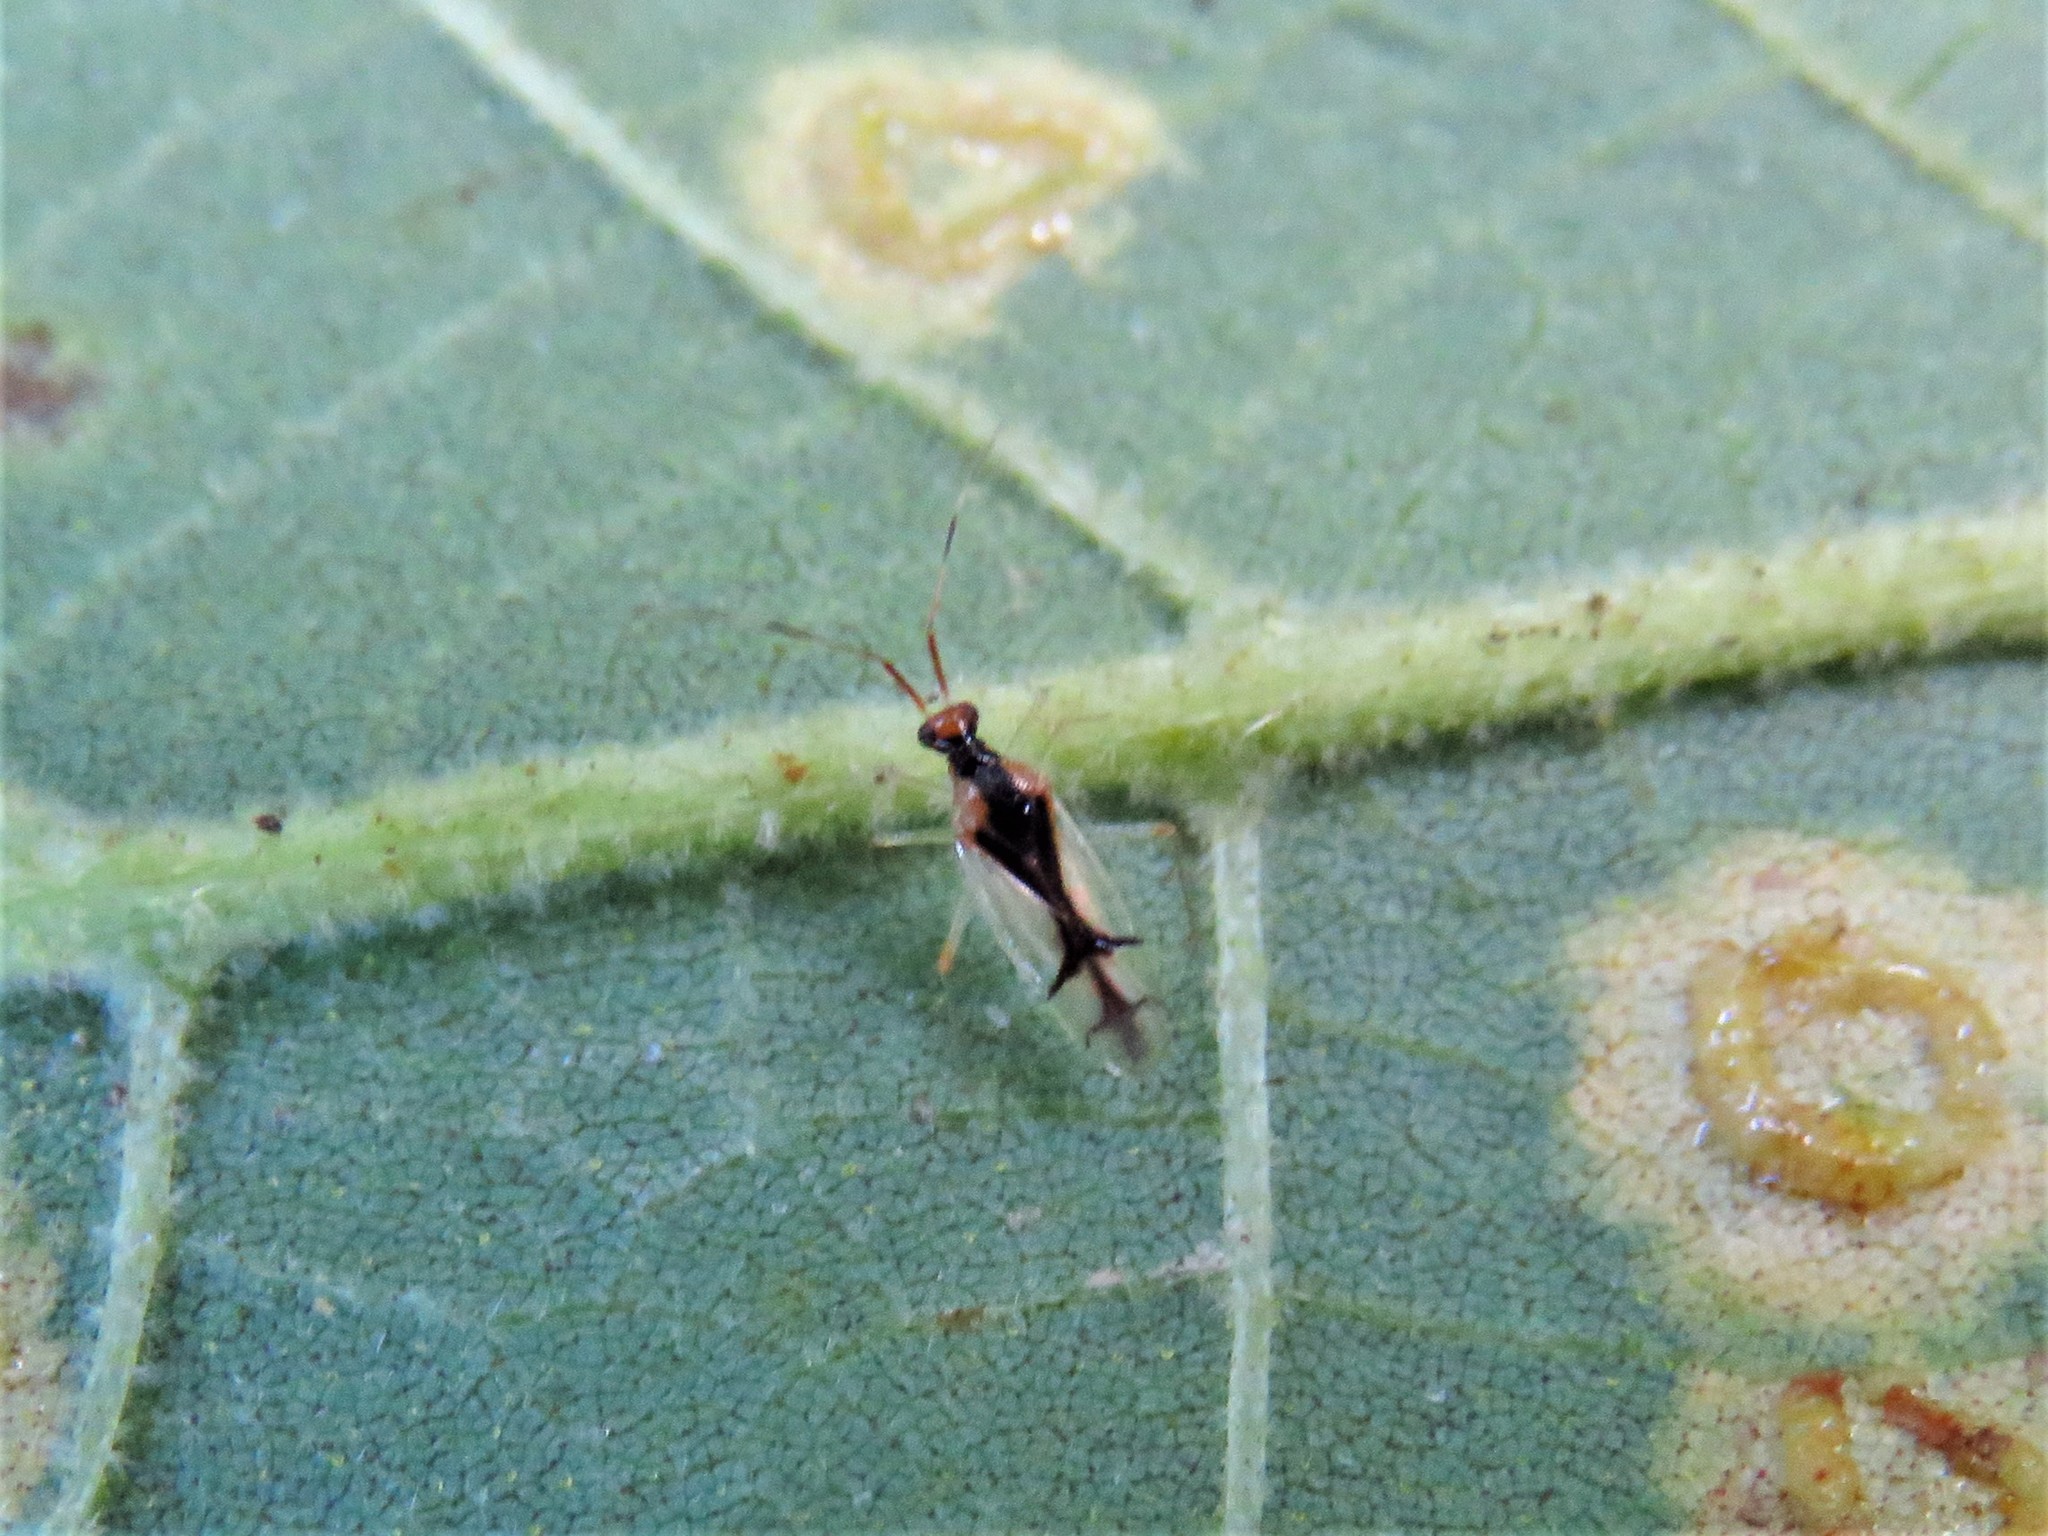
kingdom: Animalia
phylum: Arthropoda
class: Insecta
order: Hemiptera
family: Miridae
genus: Hyaliodes
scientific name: Hyaliodes vitripennis
